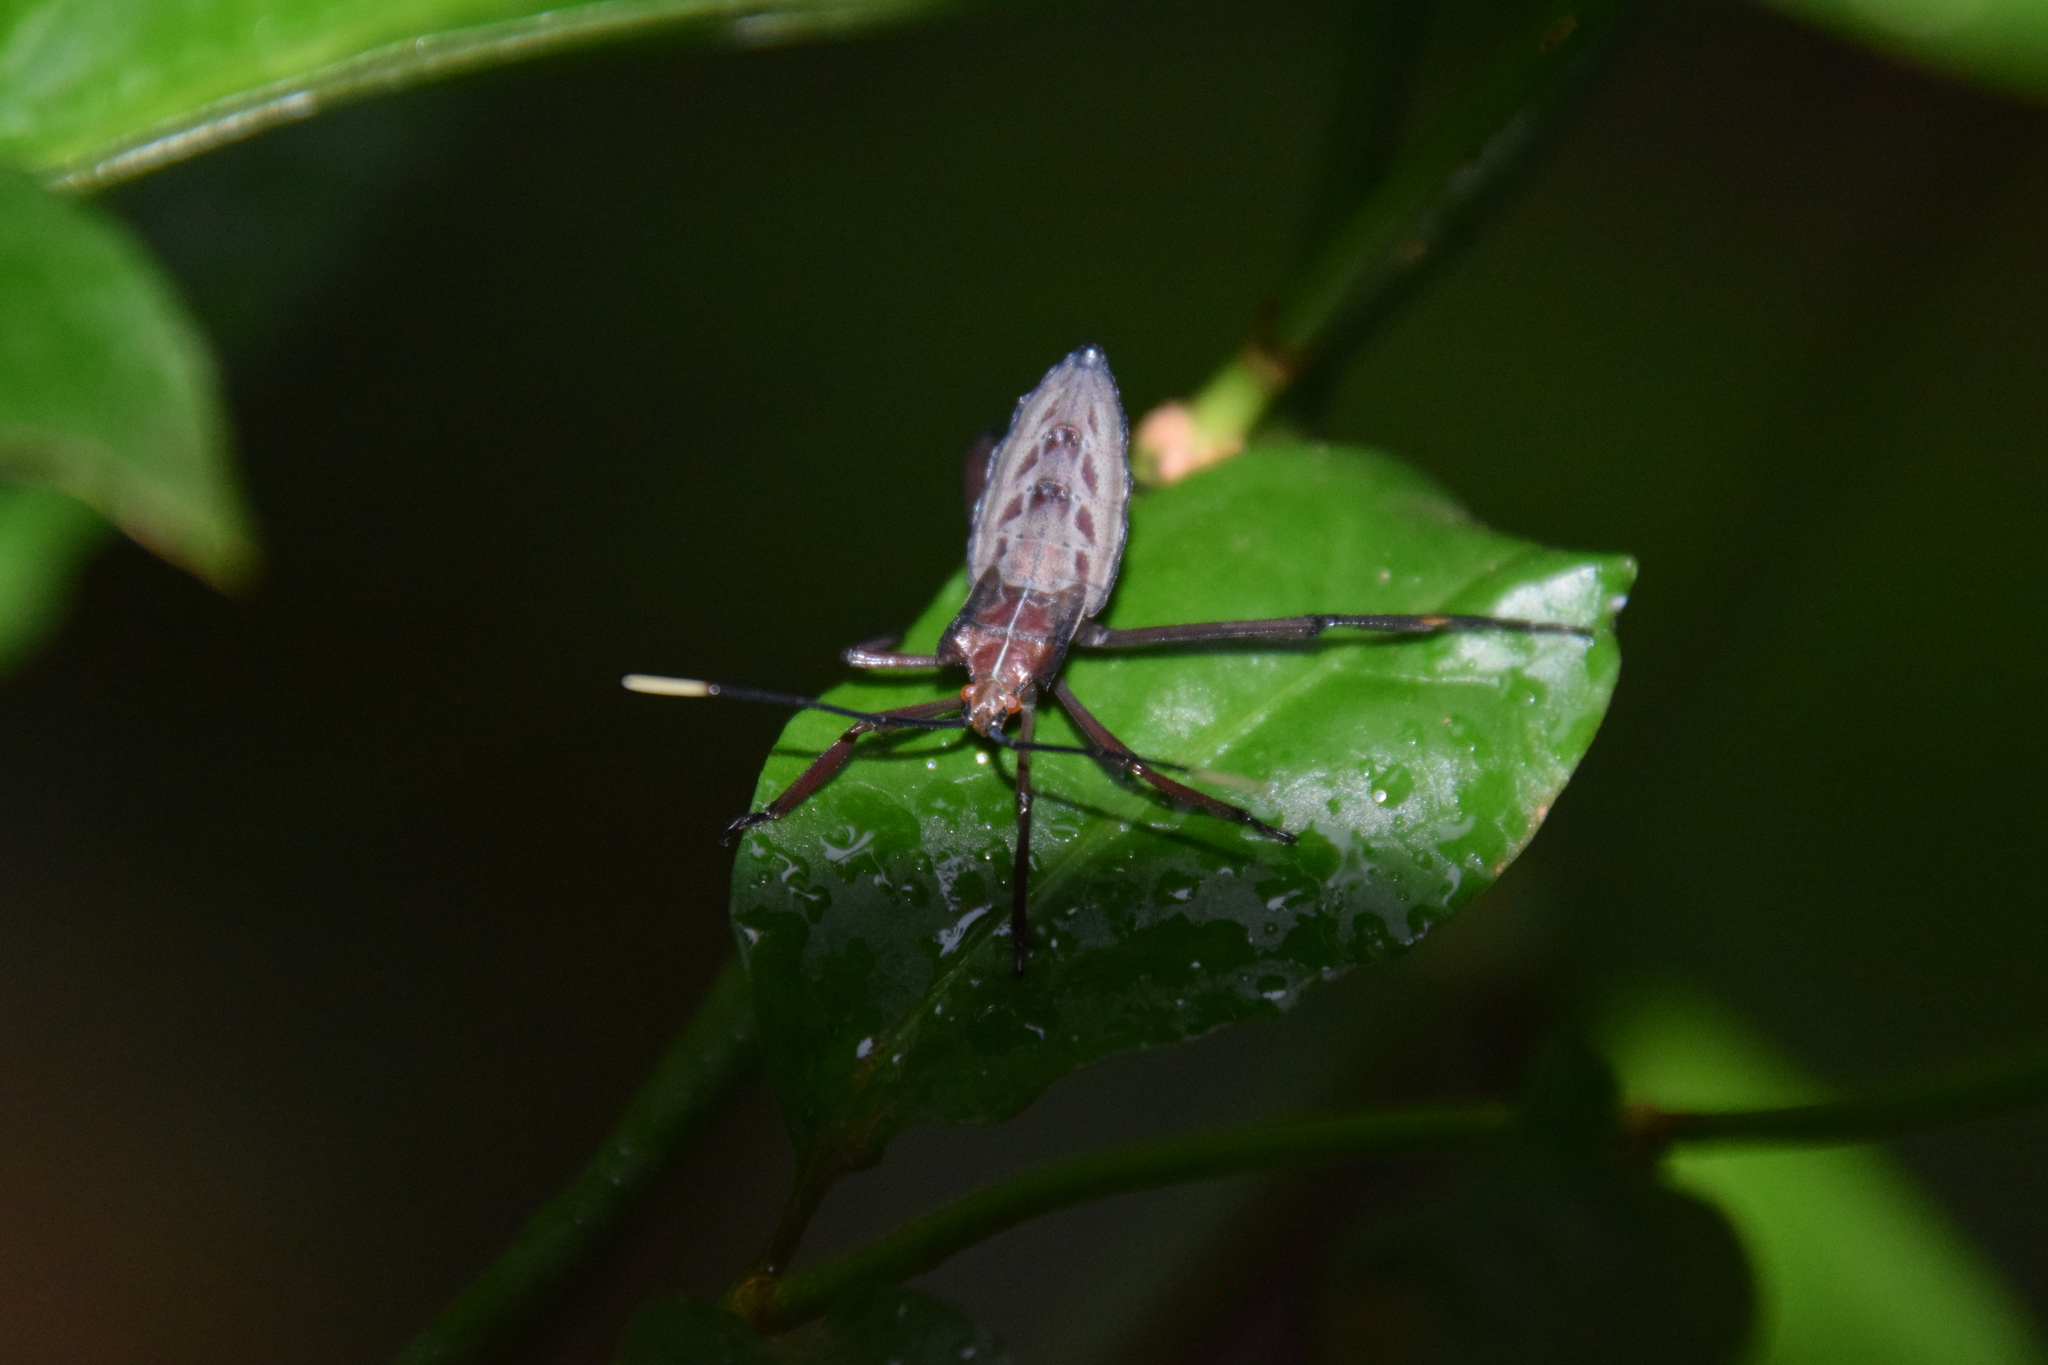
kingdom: Animalia
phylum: Arthropoda
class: Insecta
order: Hemiptera
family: Coreidae
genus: Canungrantmictis
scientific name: Canungrantmictis morindana
